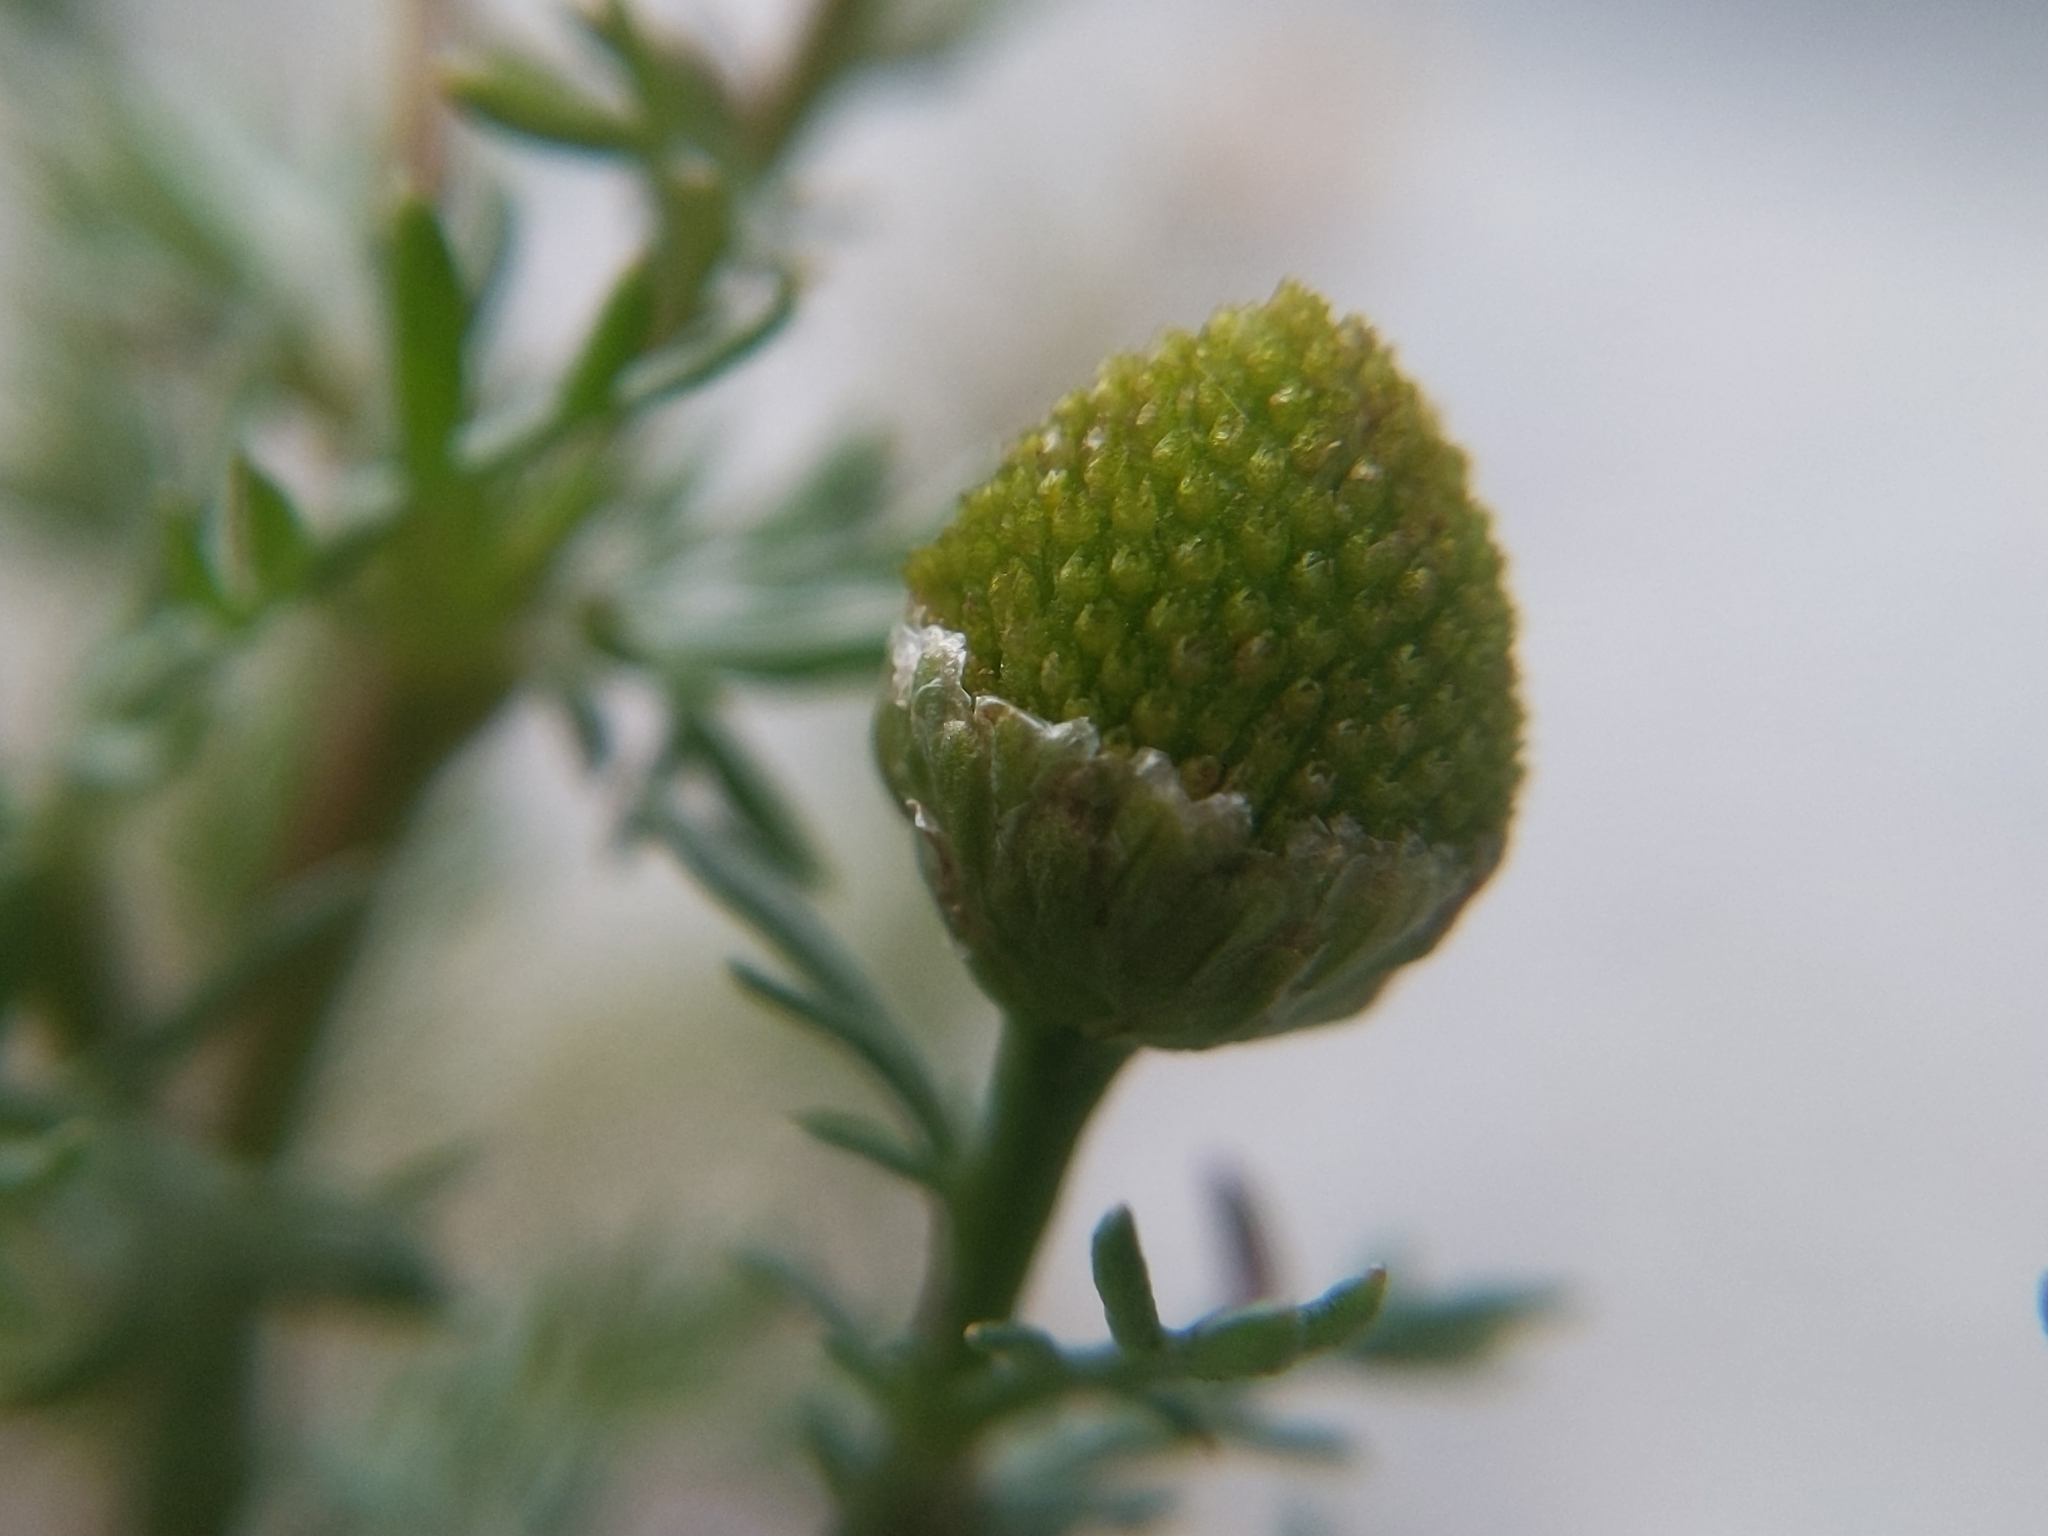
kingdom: Plantae
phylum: Tracheophyta
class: Magnoliopsida
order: Asterales
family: Asteraceae
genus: Matricaria
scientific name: Matricaria discoidea
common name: Disc mayweed
